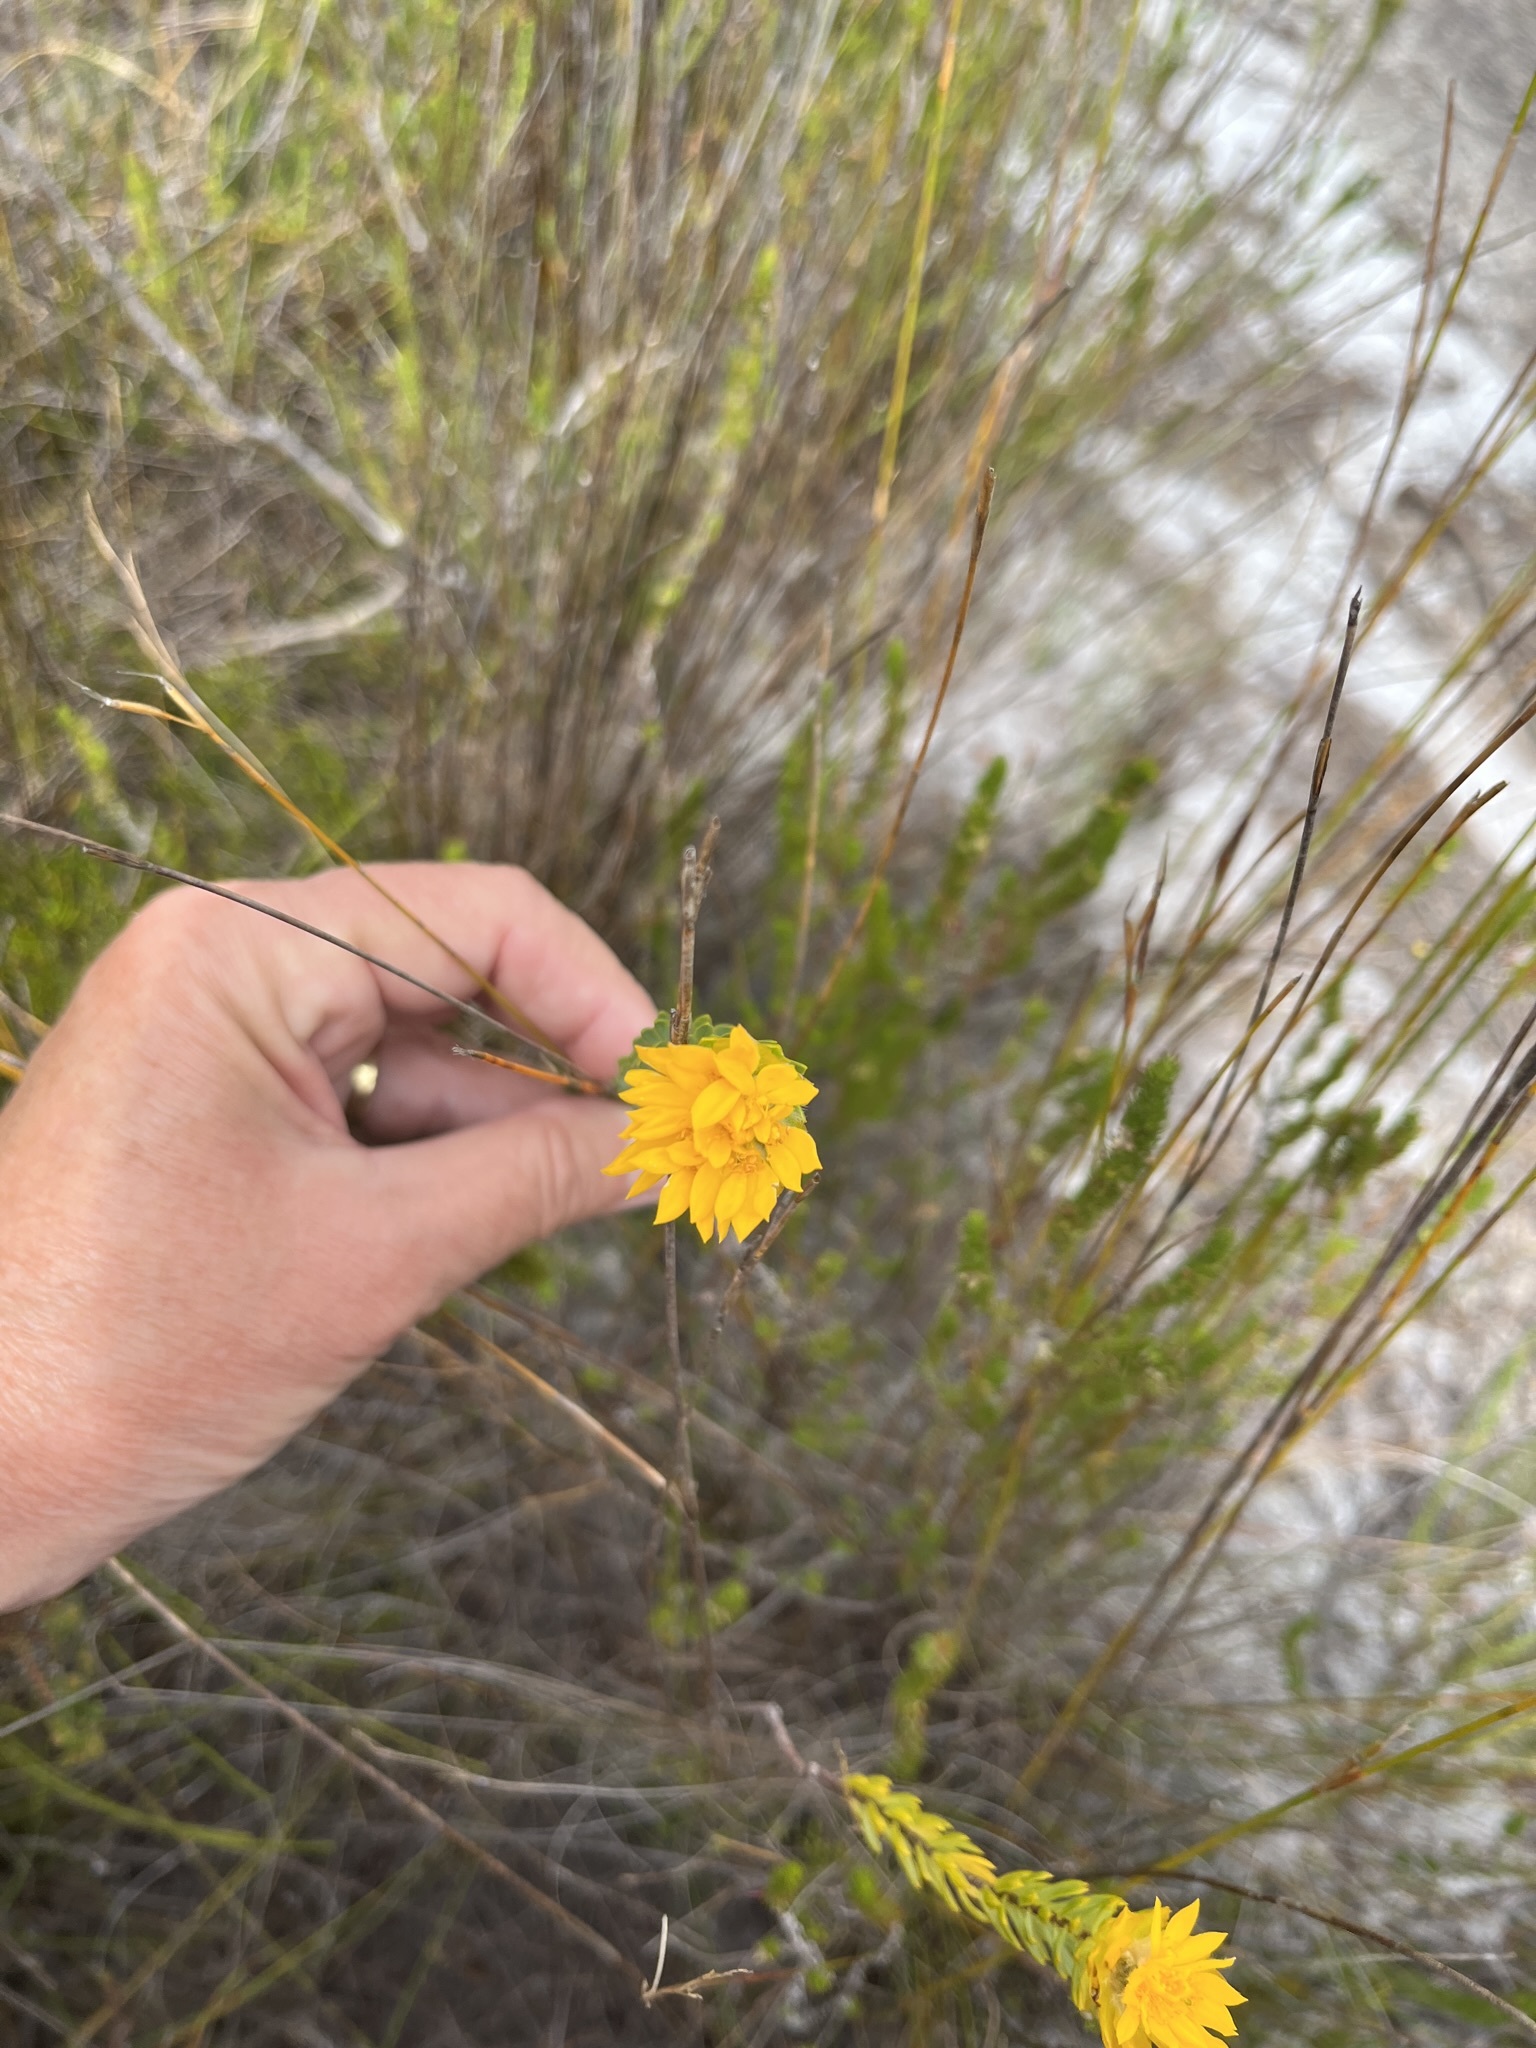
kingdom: Plantae
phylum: Tracheophyta
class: Magnoliopsida
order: Malvales
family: Thymelaeaceae
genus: Lachnaea
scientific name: Lachnaea aurea
